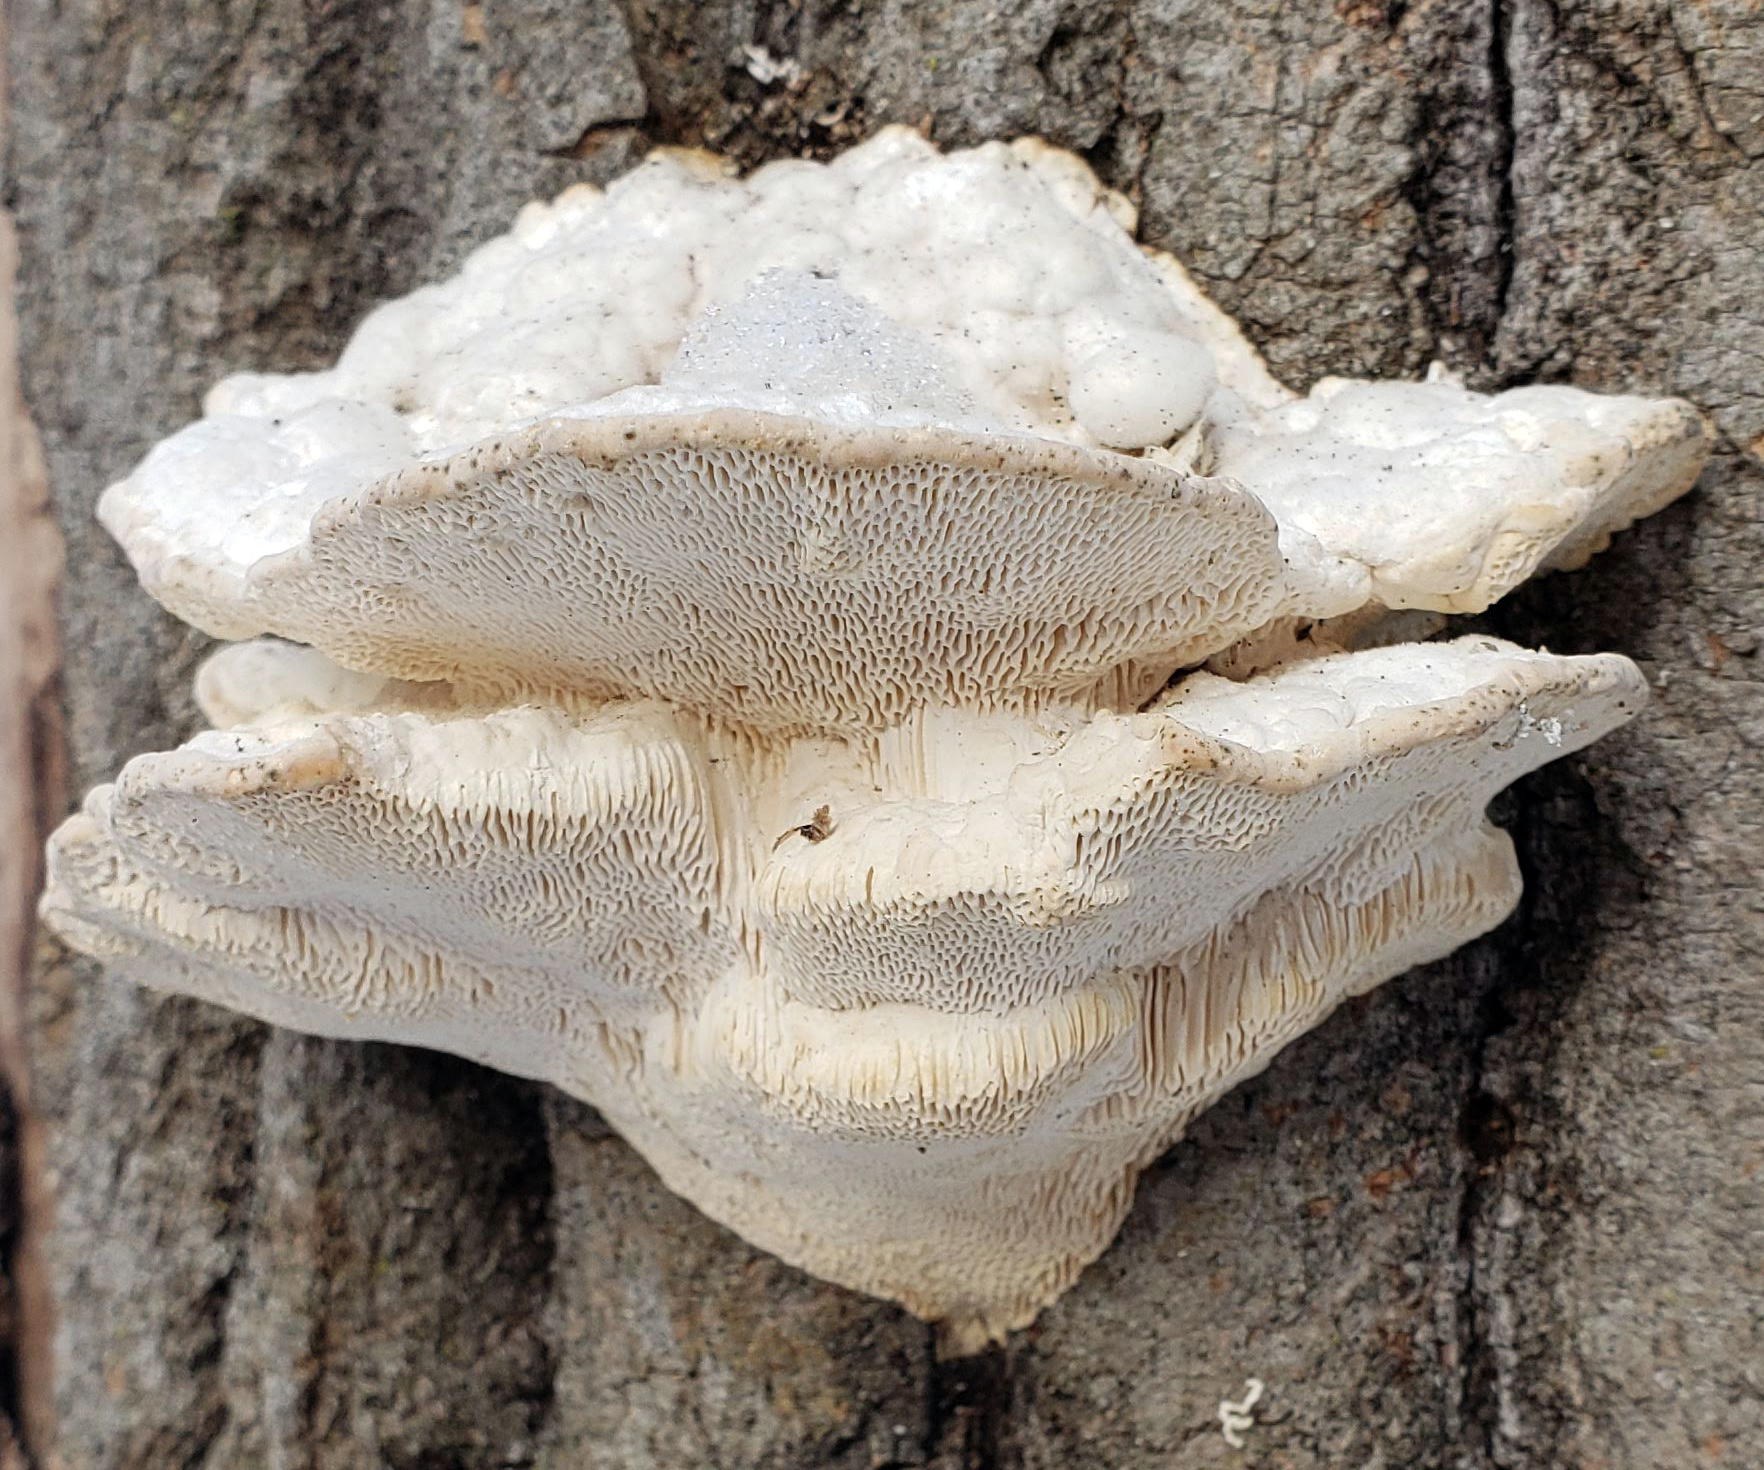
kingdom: Fungi
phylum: Basidiomycota
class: Agaricomycetes
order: Polyporales
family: Polyporaceae
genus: Trametes
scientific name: Trametes gibbosa
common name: Lumpy bracket
